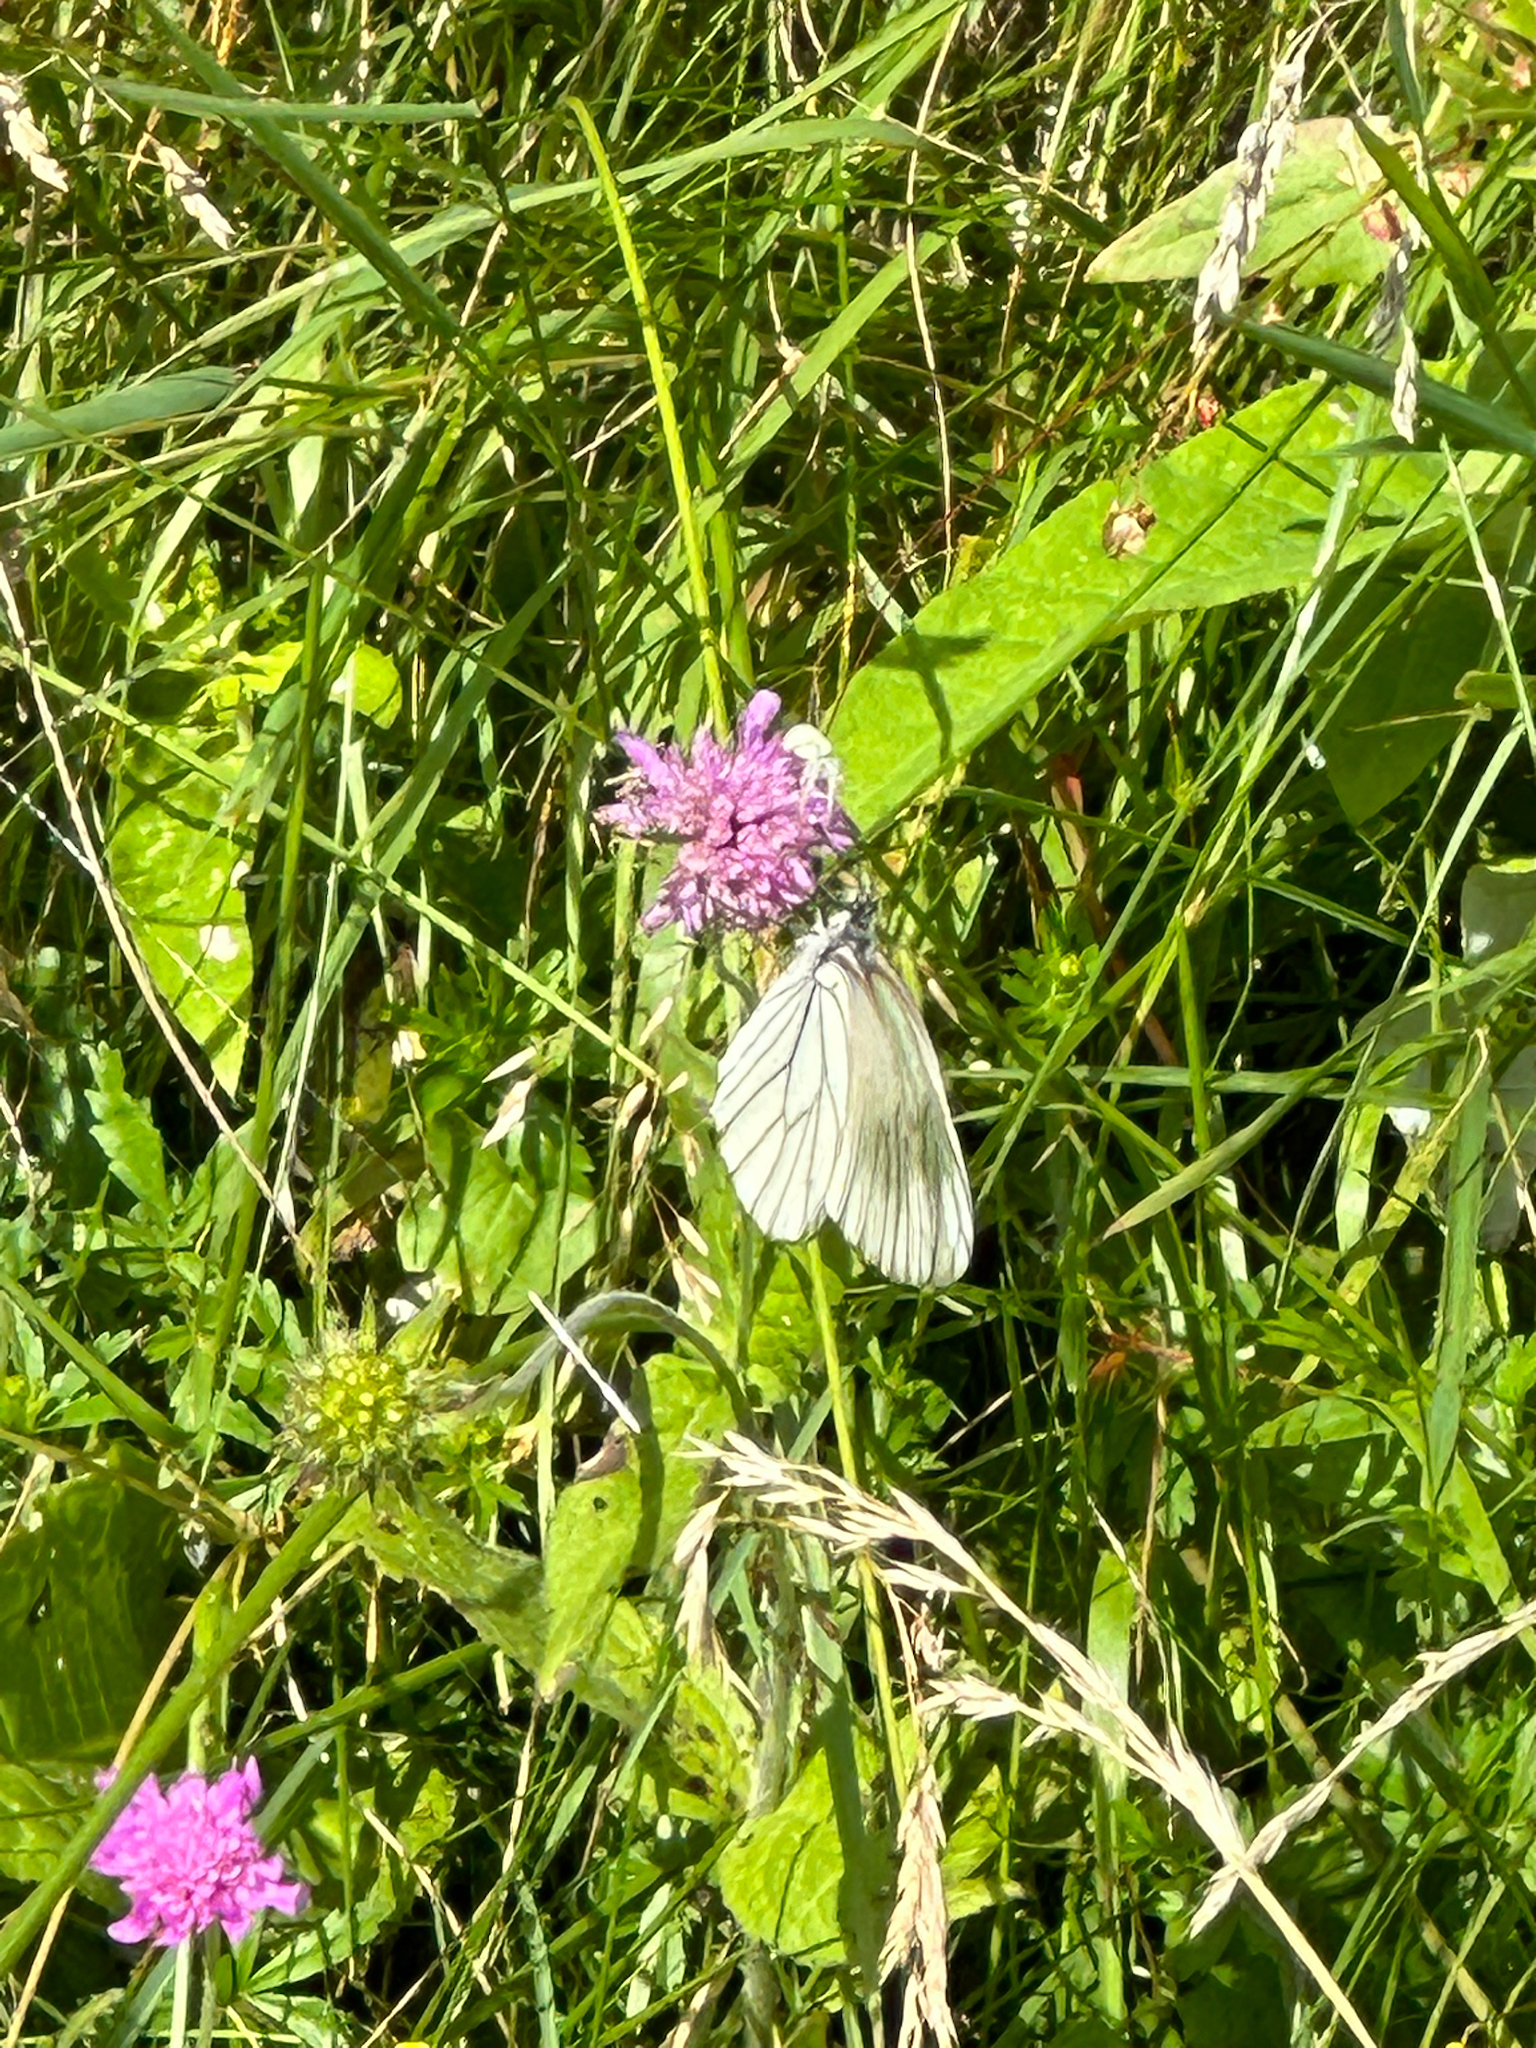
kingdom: Animalia
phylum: Arthropoda
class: Insecta
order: Lepidoptera
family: Pieridae
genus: Aporia
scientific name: Aporia crataegi
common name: Black-veined white
